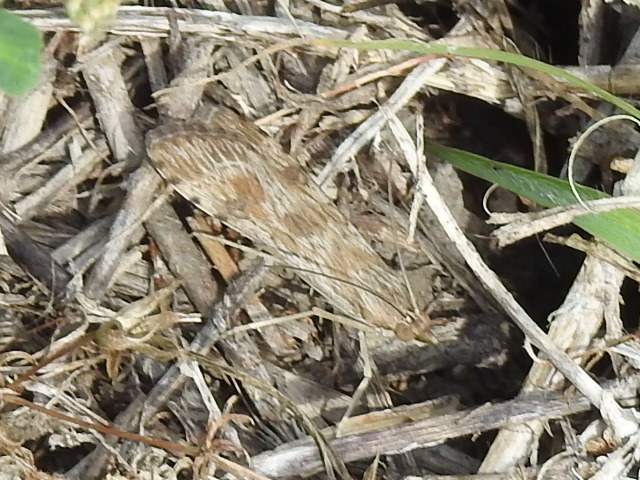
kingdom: Animalia
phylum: Arthropoda
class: Insecta
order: Lepidoptera
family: Crambidae
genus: Nomophila
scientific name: Nomophila nearctica
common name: American rush veneer
